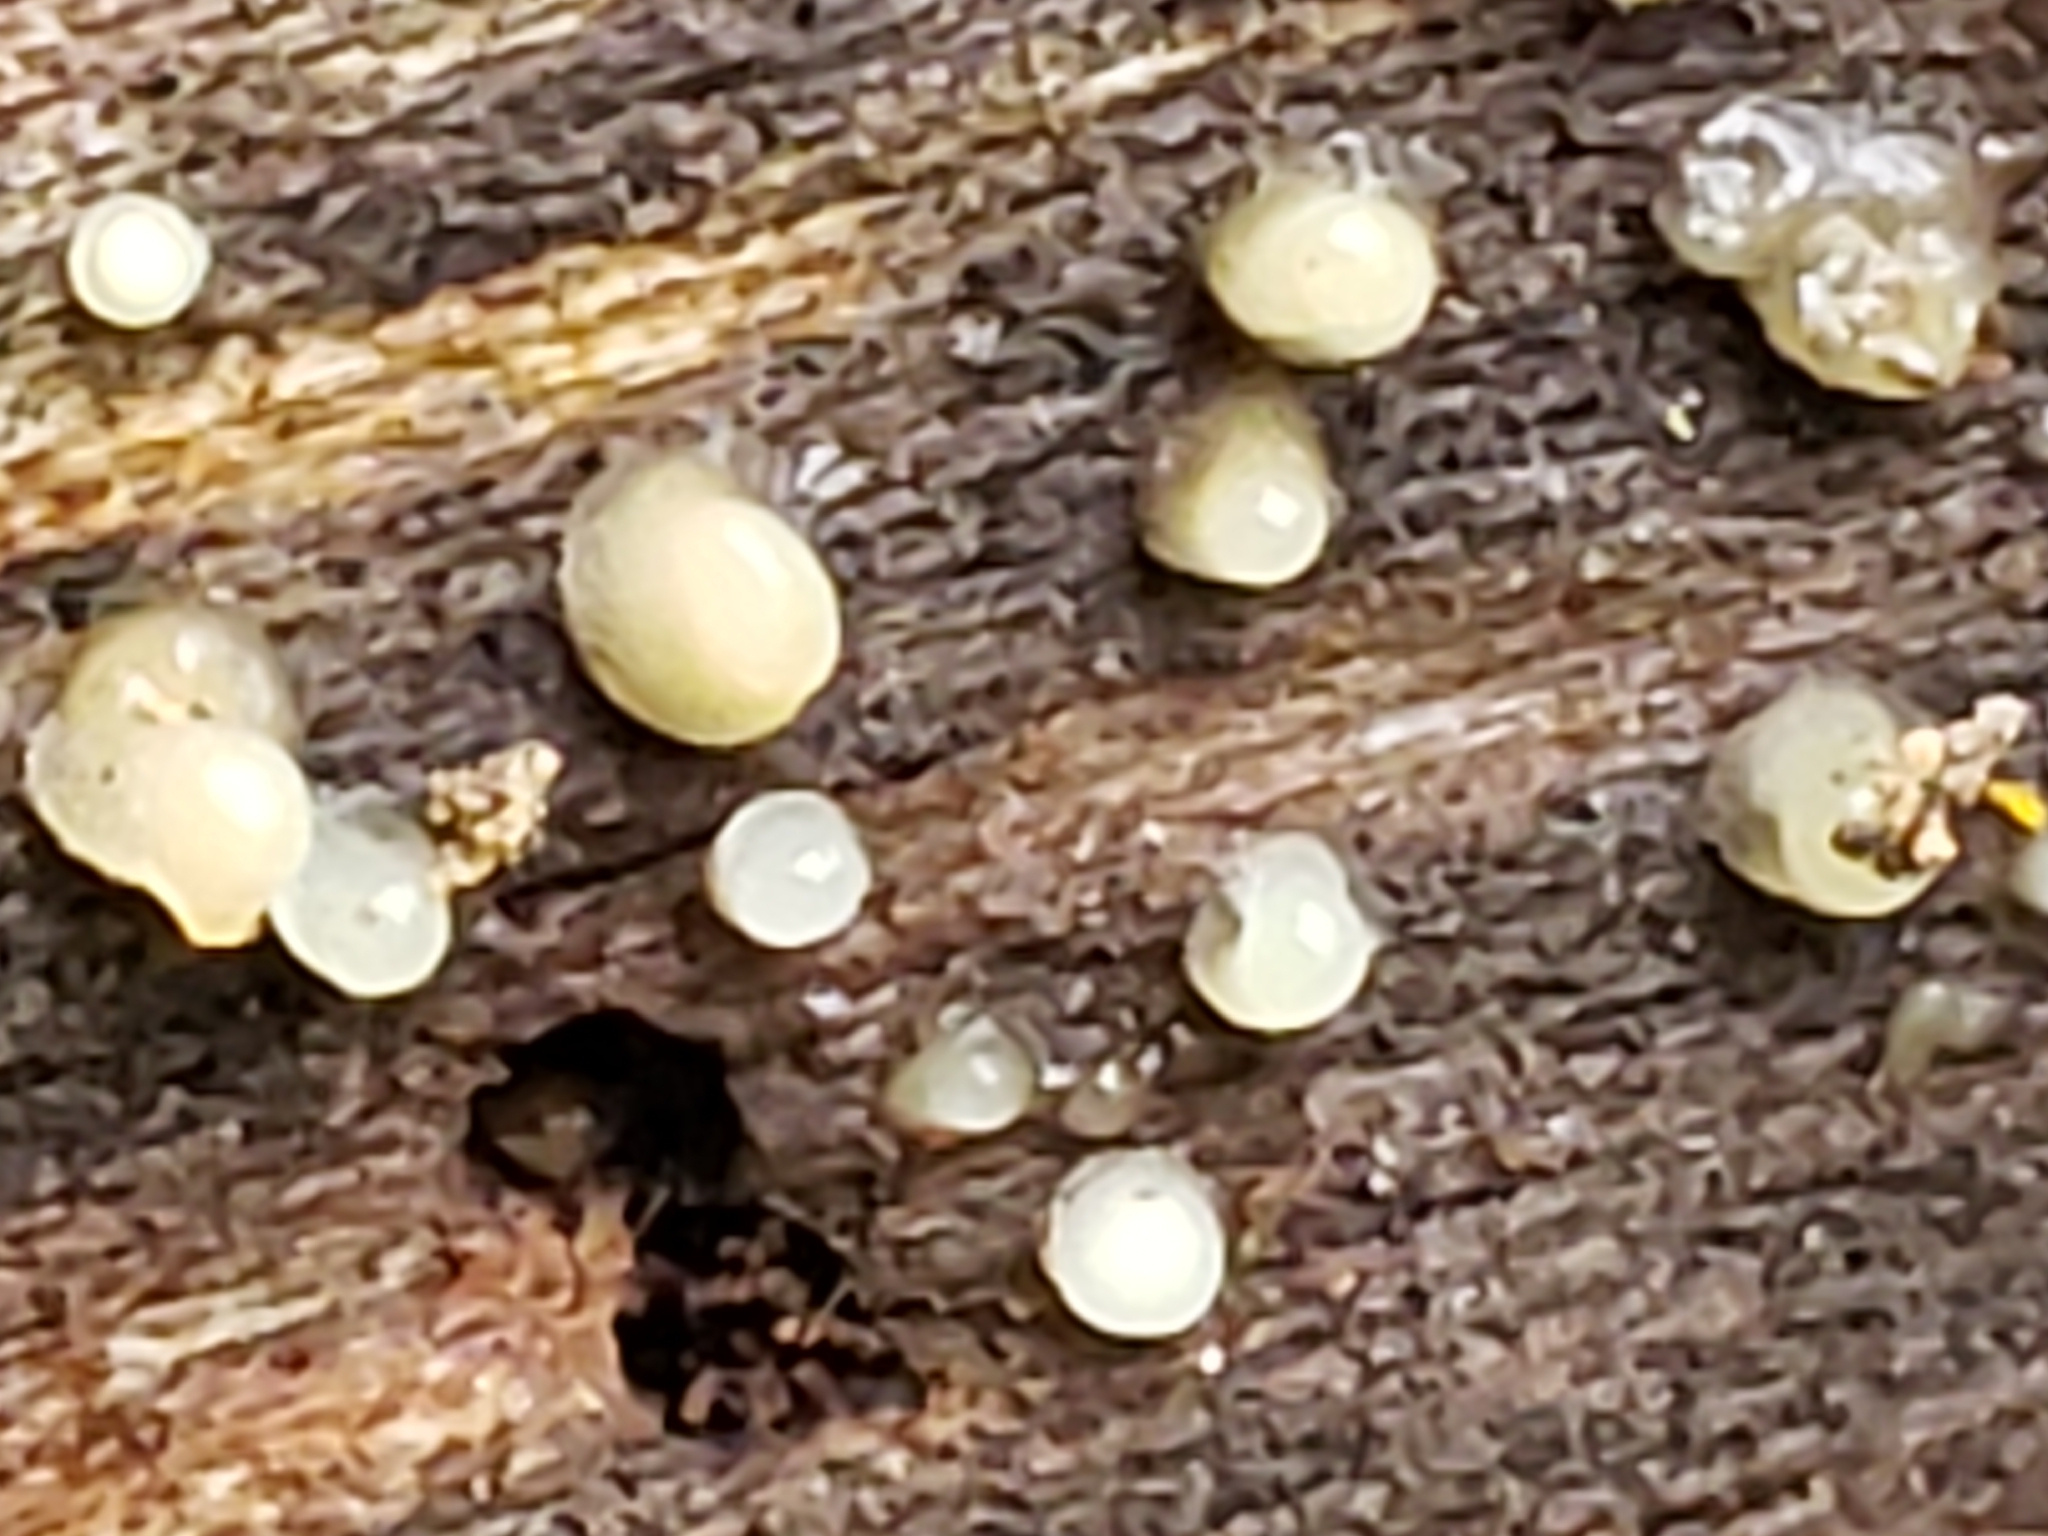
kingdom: Fungi
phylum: Basidiomycota
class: Atractiellomycetes
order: Atractiellales
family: Phleogenaceae
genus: Helicogloea
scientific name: Helicogloea compressa
